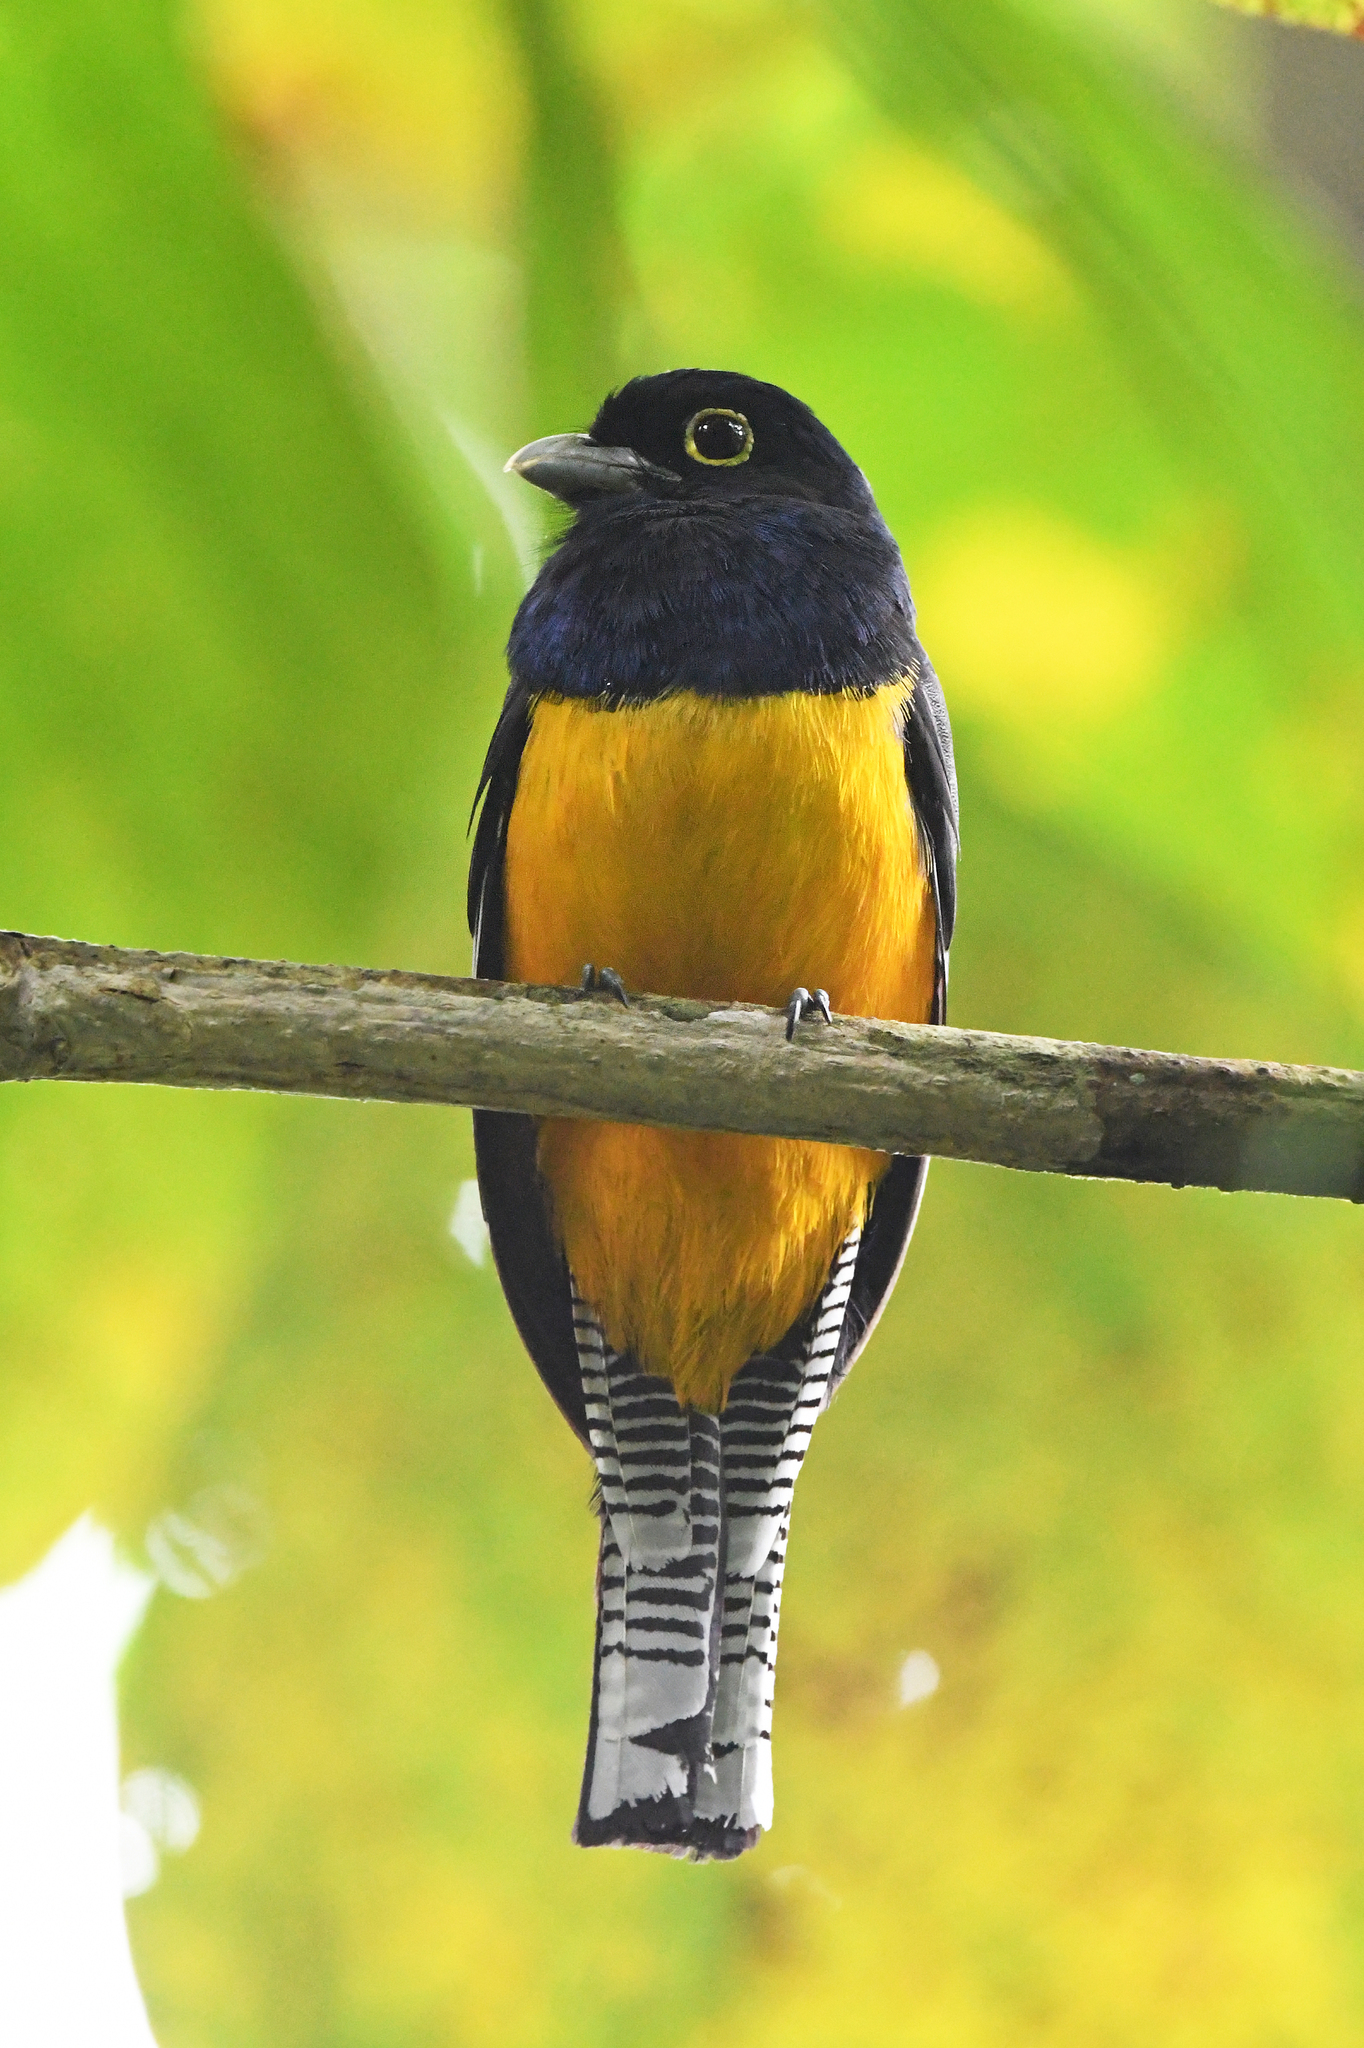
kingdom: Animalia
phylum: Chordata
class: Aves
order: Trogoniformes
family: Trogonidae
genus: Trogon
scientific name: Trogon caligatus
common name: Gartered trogon
